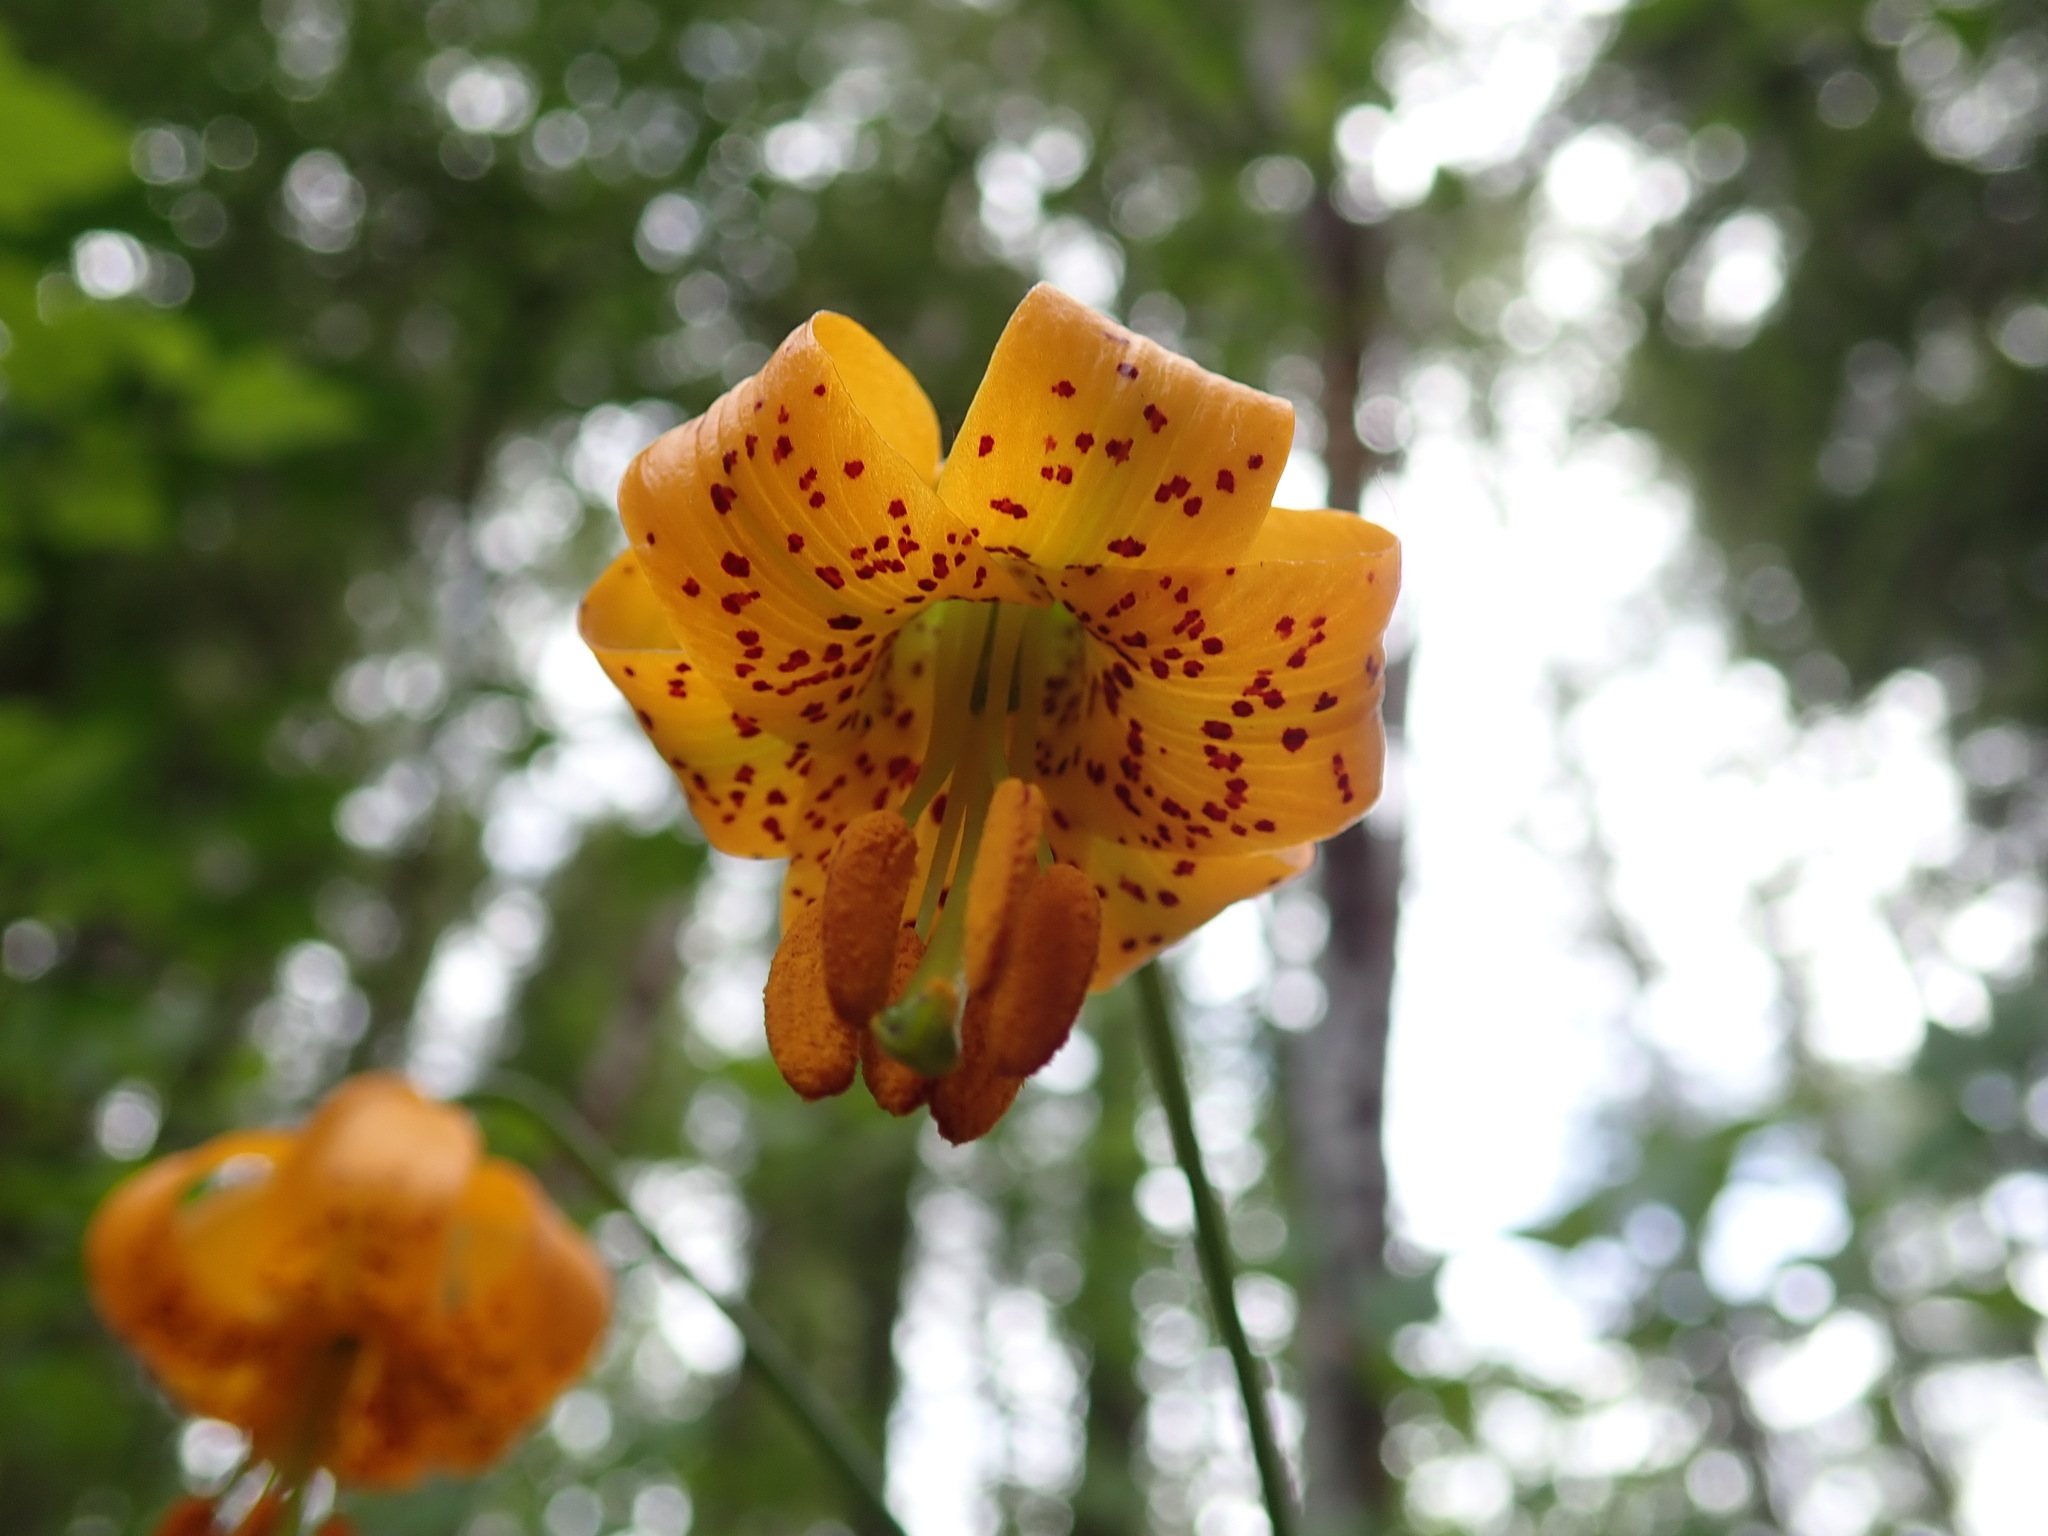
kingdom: Plantae
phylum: Tracheophyta
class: Liliopsida
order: Liliales
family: Liliaceae
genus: Lilium
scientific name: Lilium columbianum
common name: Columbia lily
